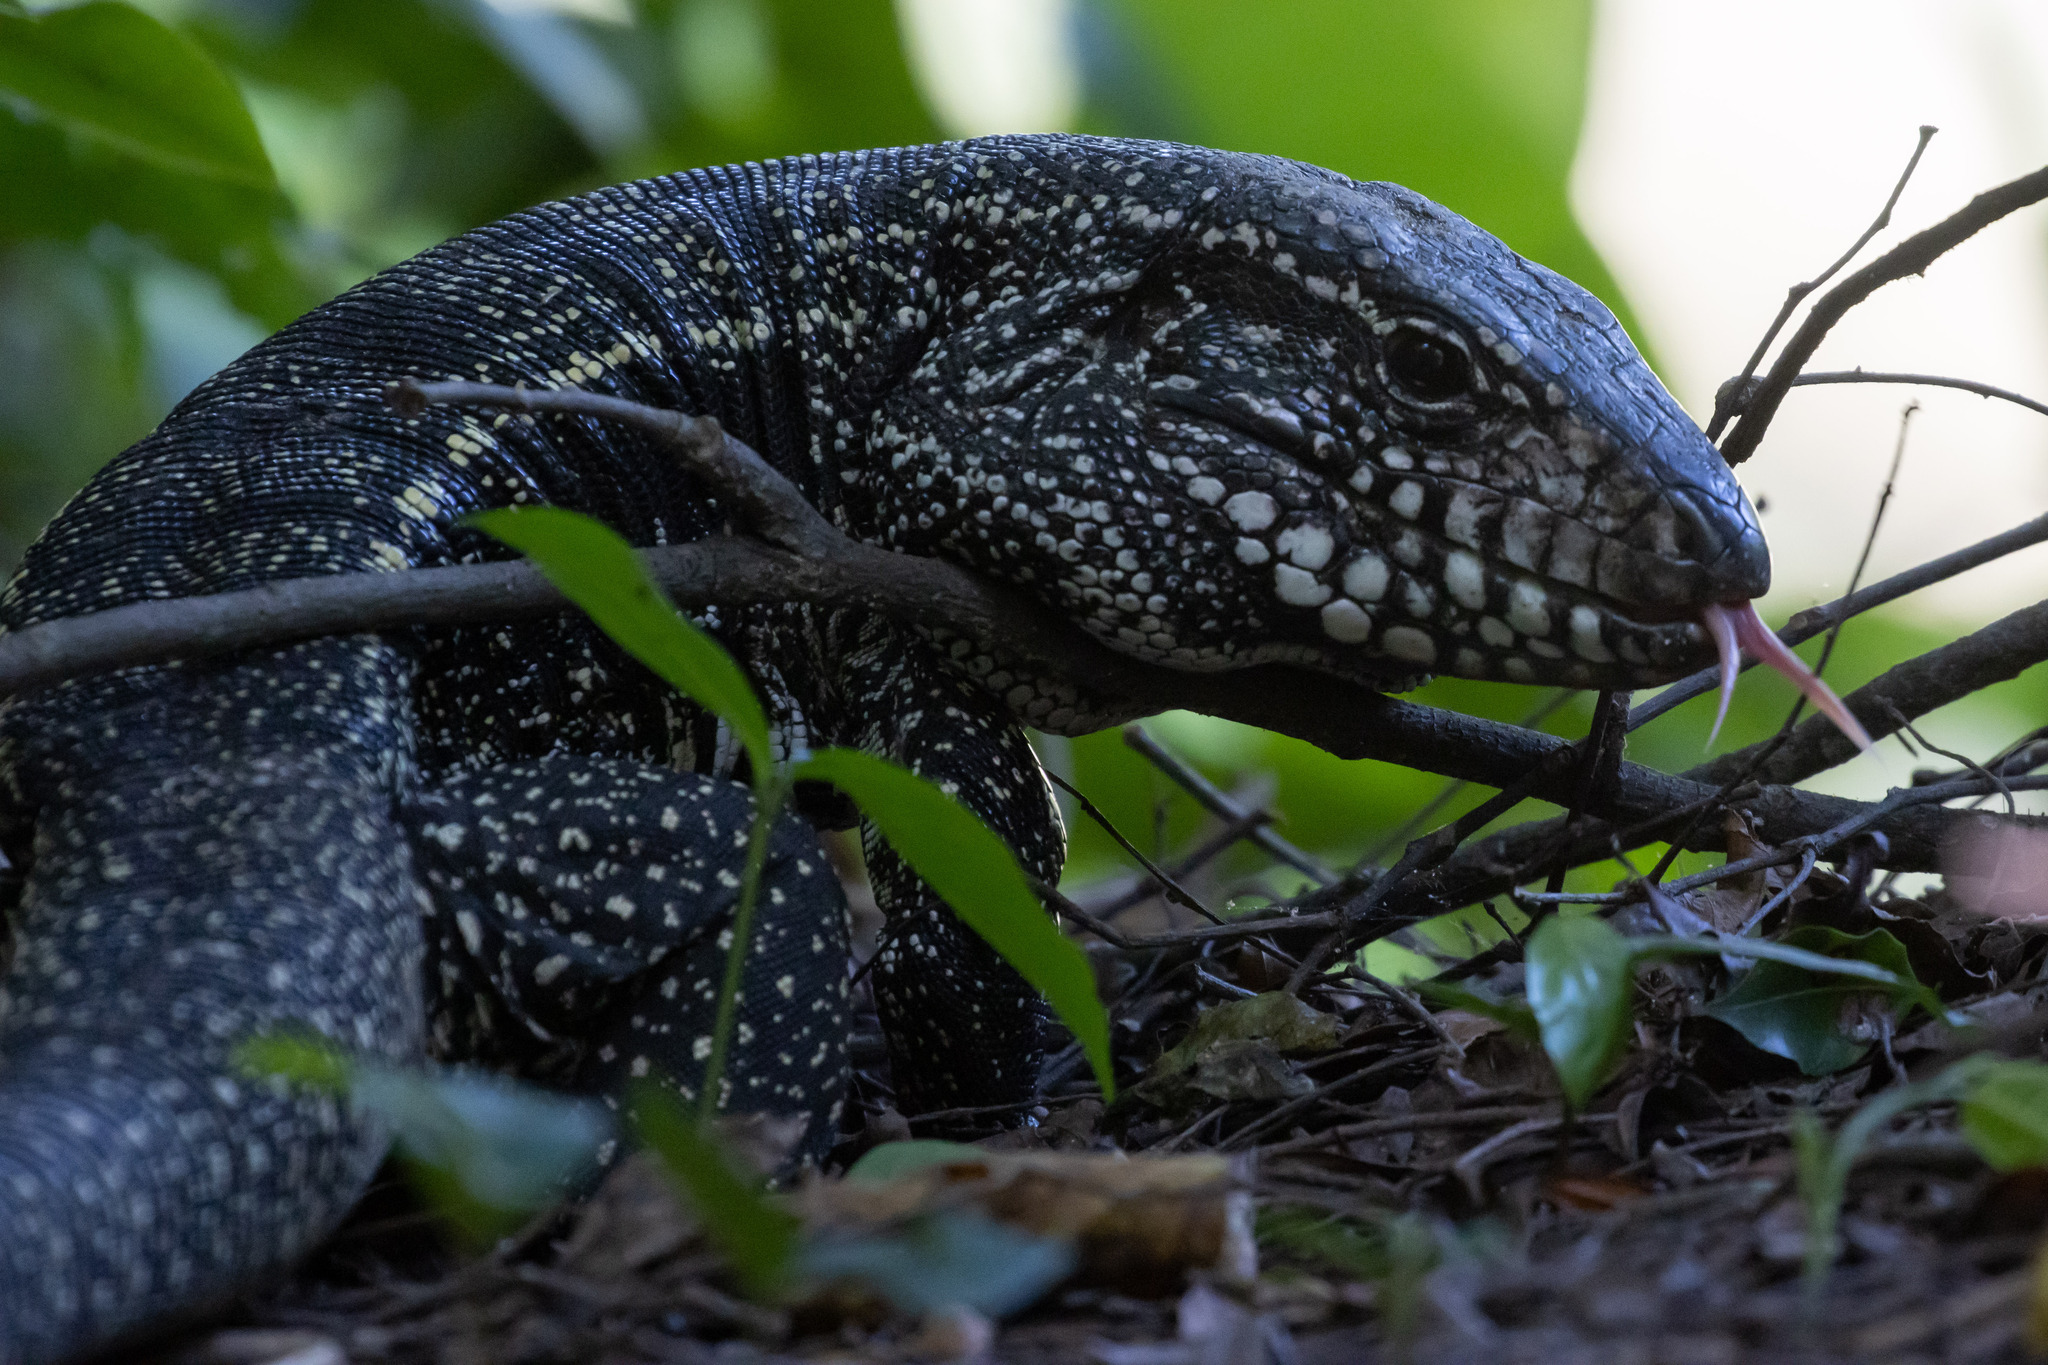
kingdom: Animalia
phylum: Chordata
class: Squamata
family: Teiidae
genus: Salvator
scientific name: Salvator merianae
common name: Argentine black and white tegu
